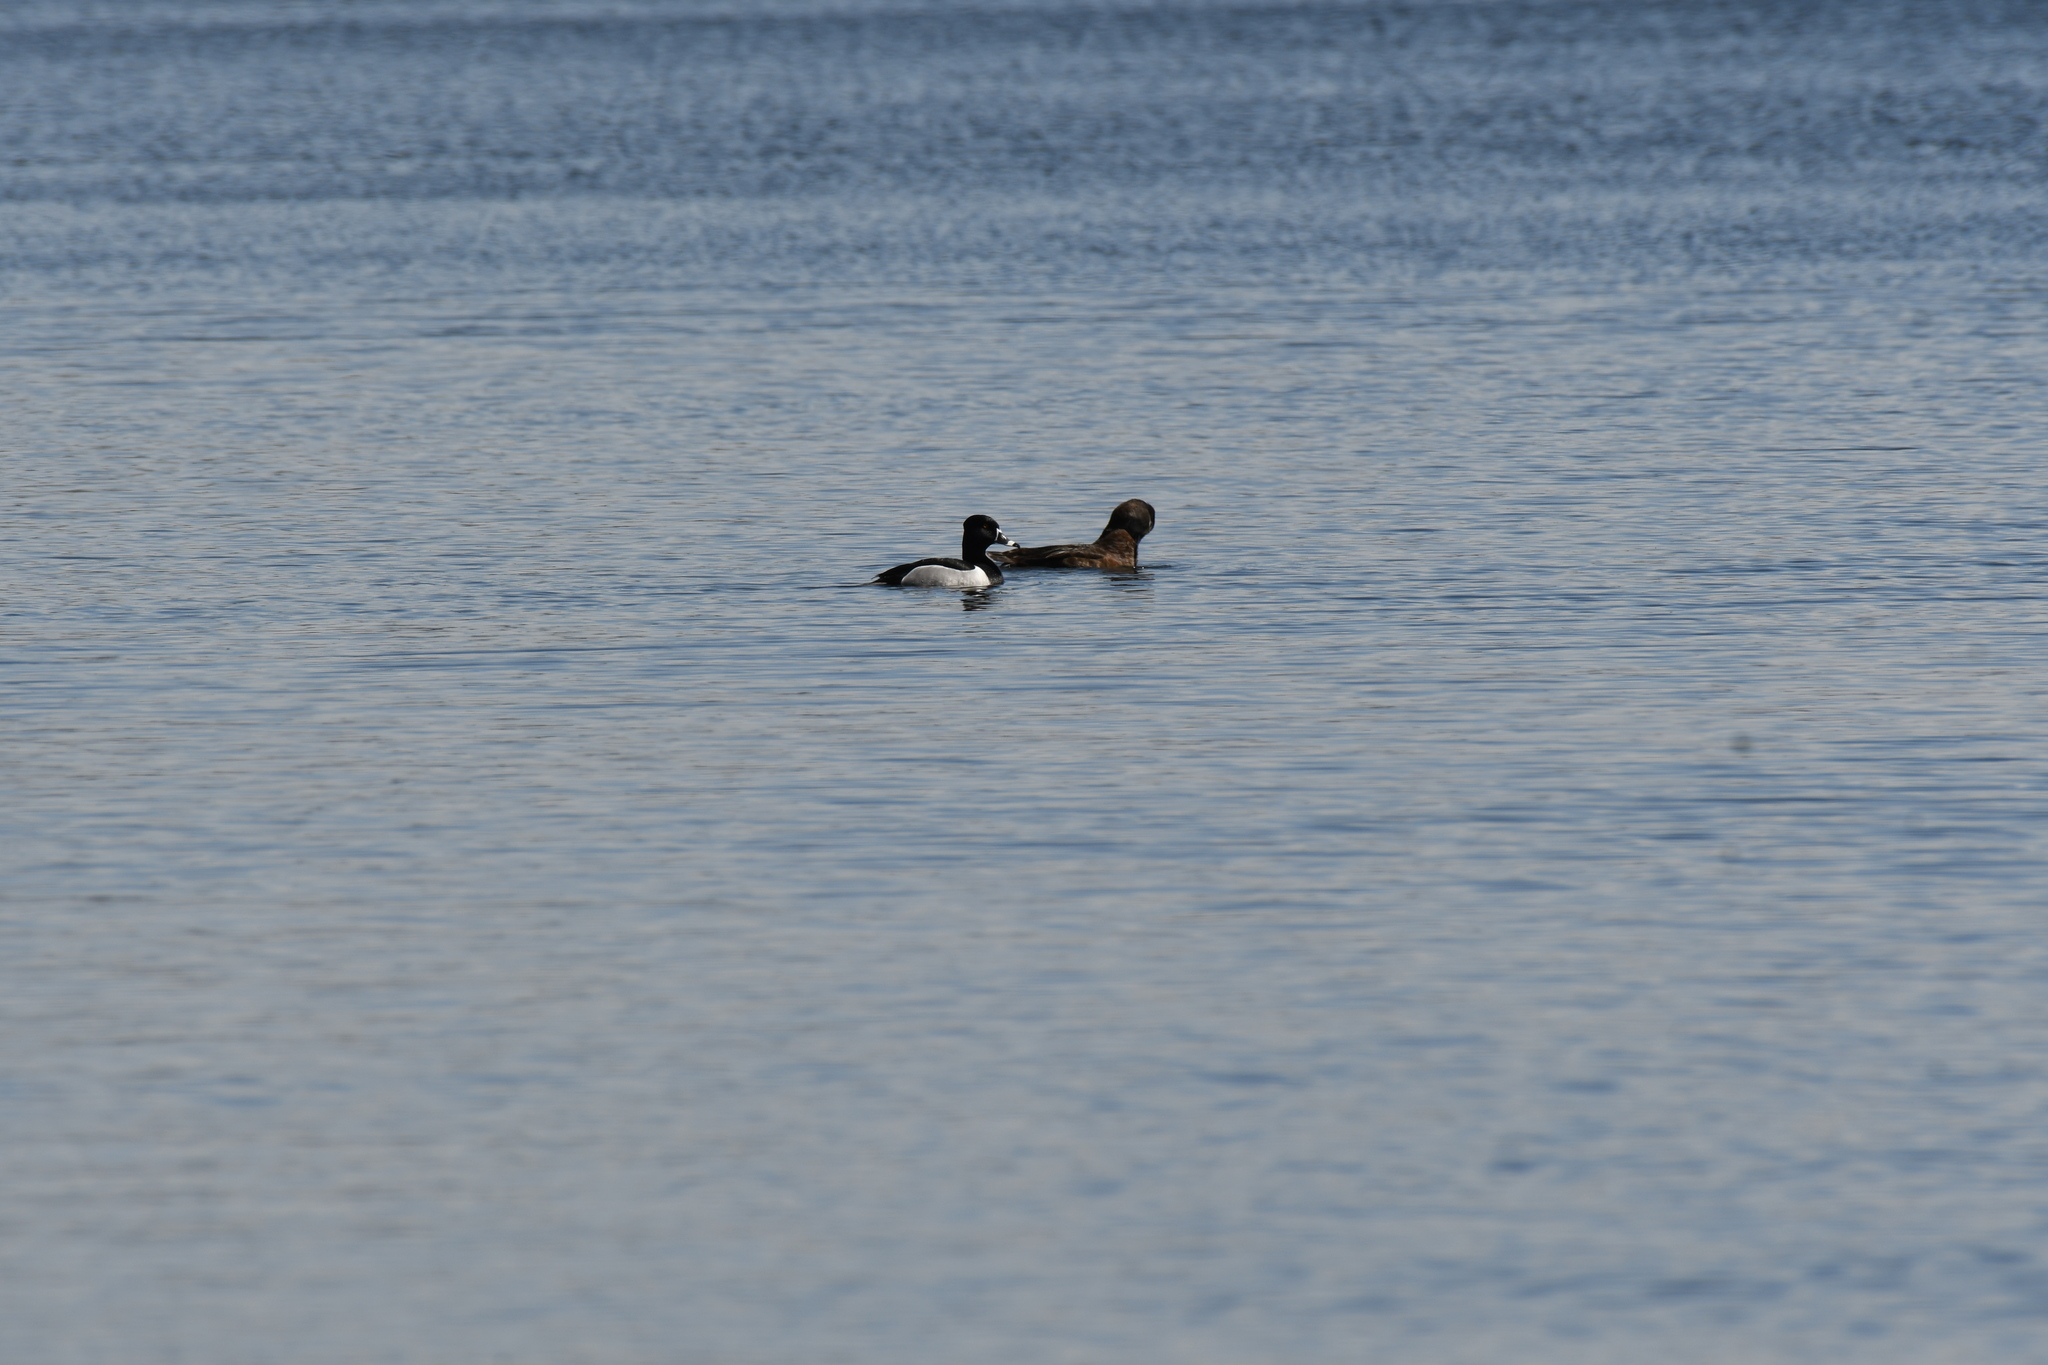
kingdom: Animalia
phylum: Chordata
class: Aves
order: Anseriformes
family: Anatidae
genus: Aythya
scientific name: Aythya collaris
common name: Ring-necked duck
